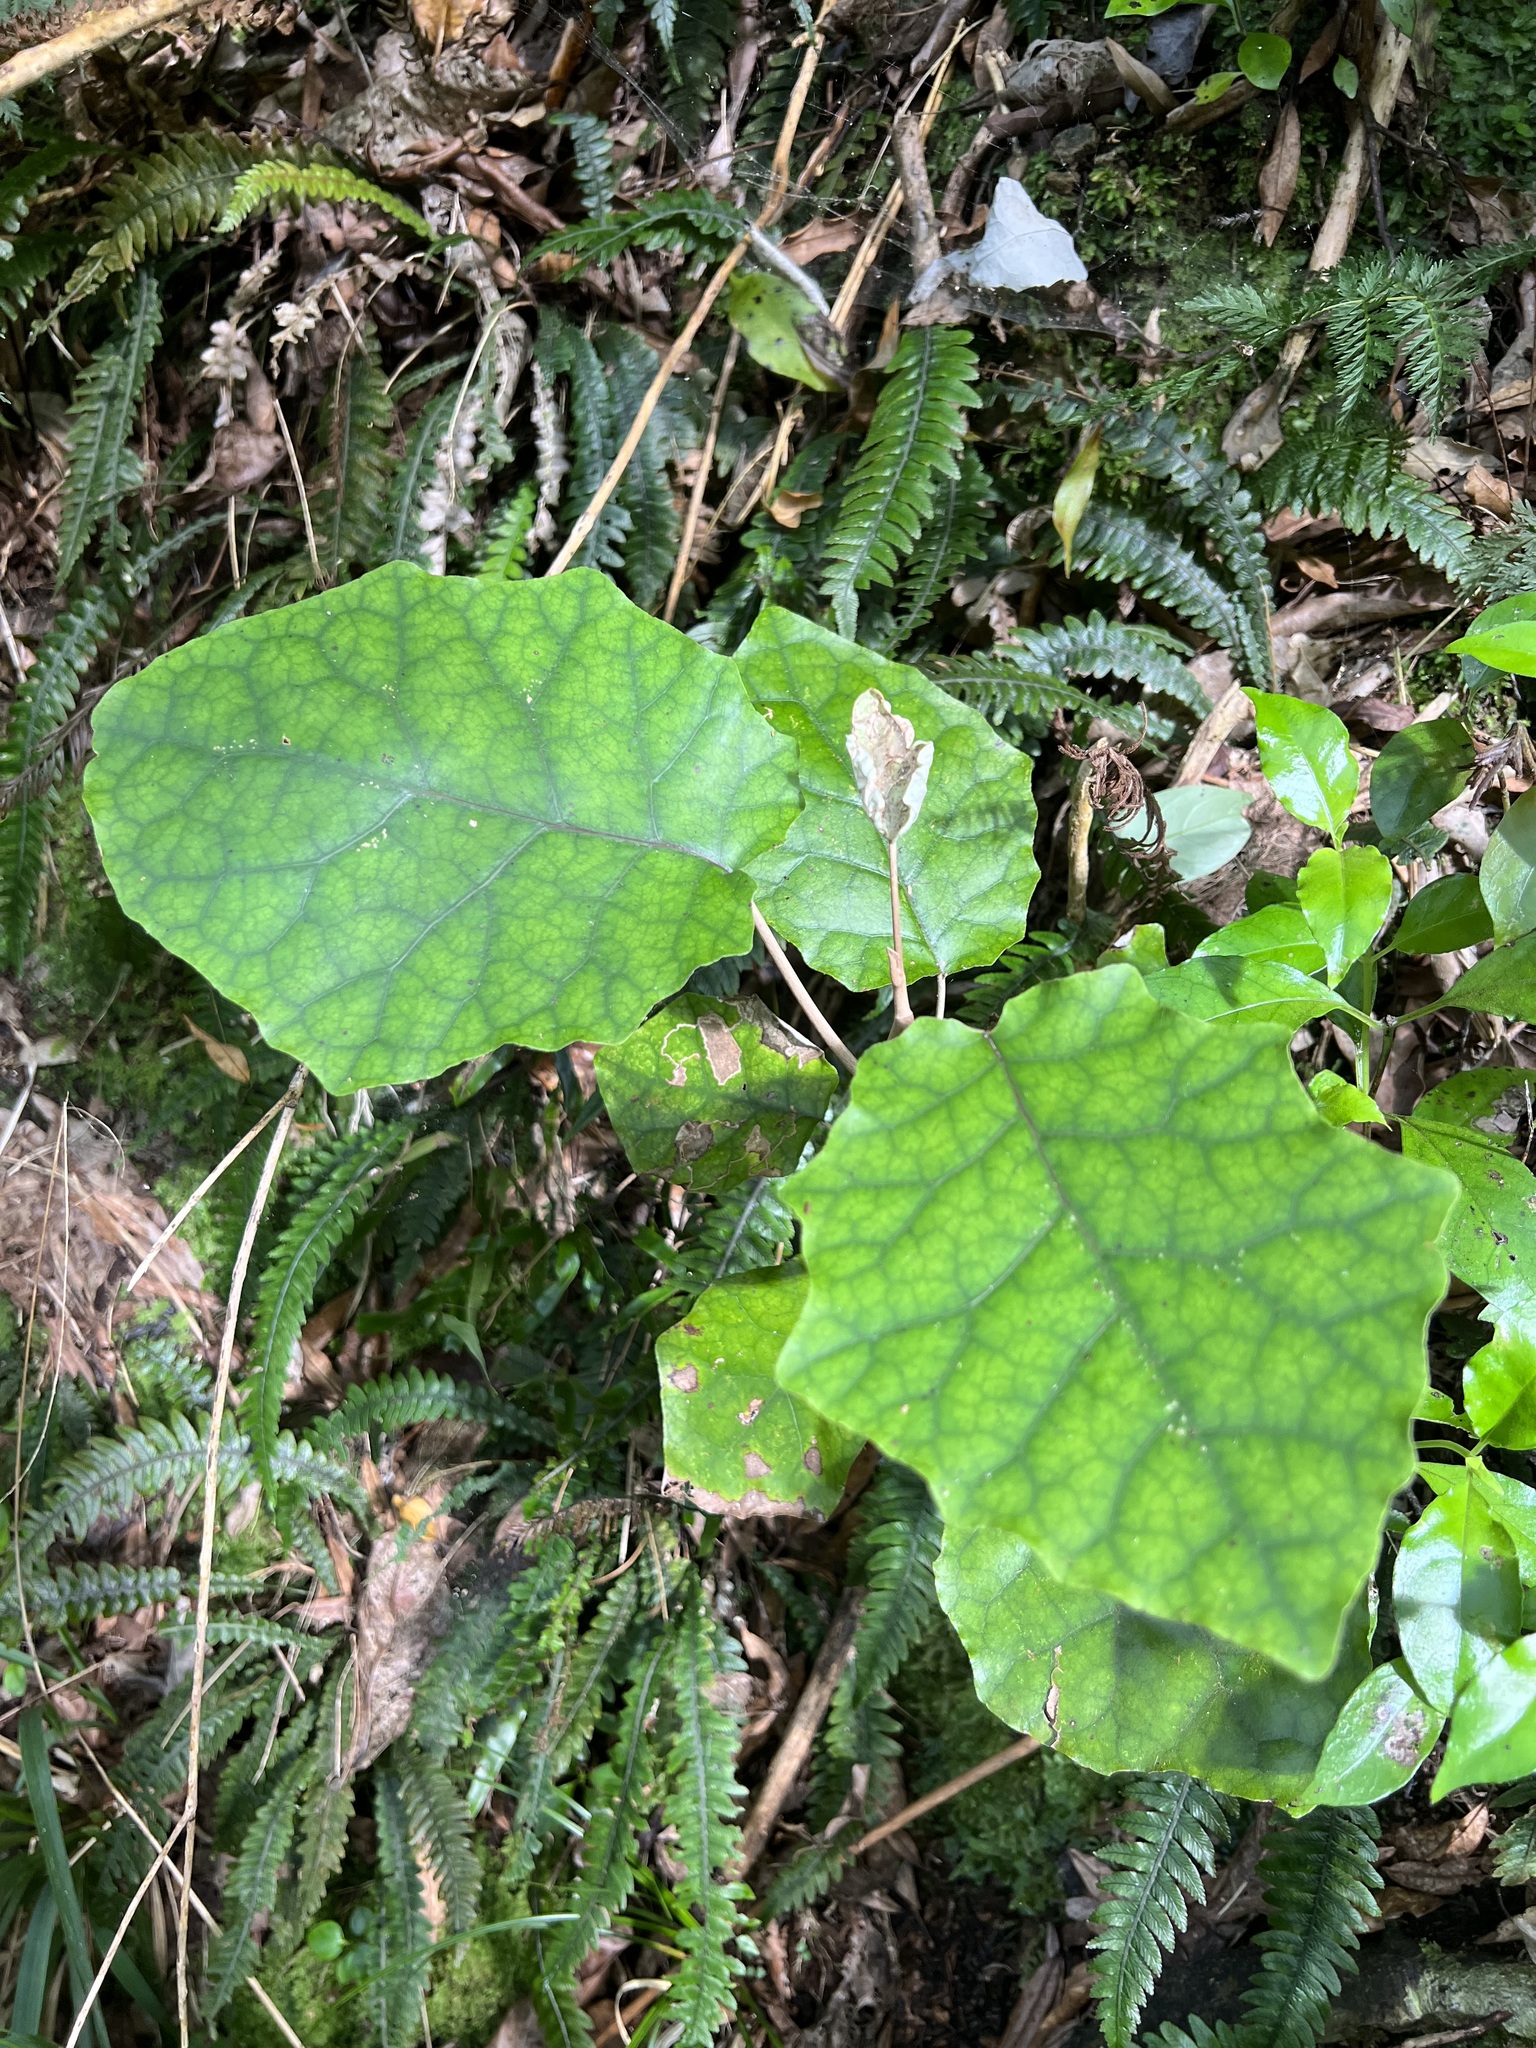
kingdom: Plantae
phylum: Tracheophyta
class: Magnoliopsida
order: Asterales
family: Asteraceae
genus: Brachyglottis
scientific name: Brachyglottis repanda
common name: Hedge ragwort
